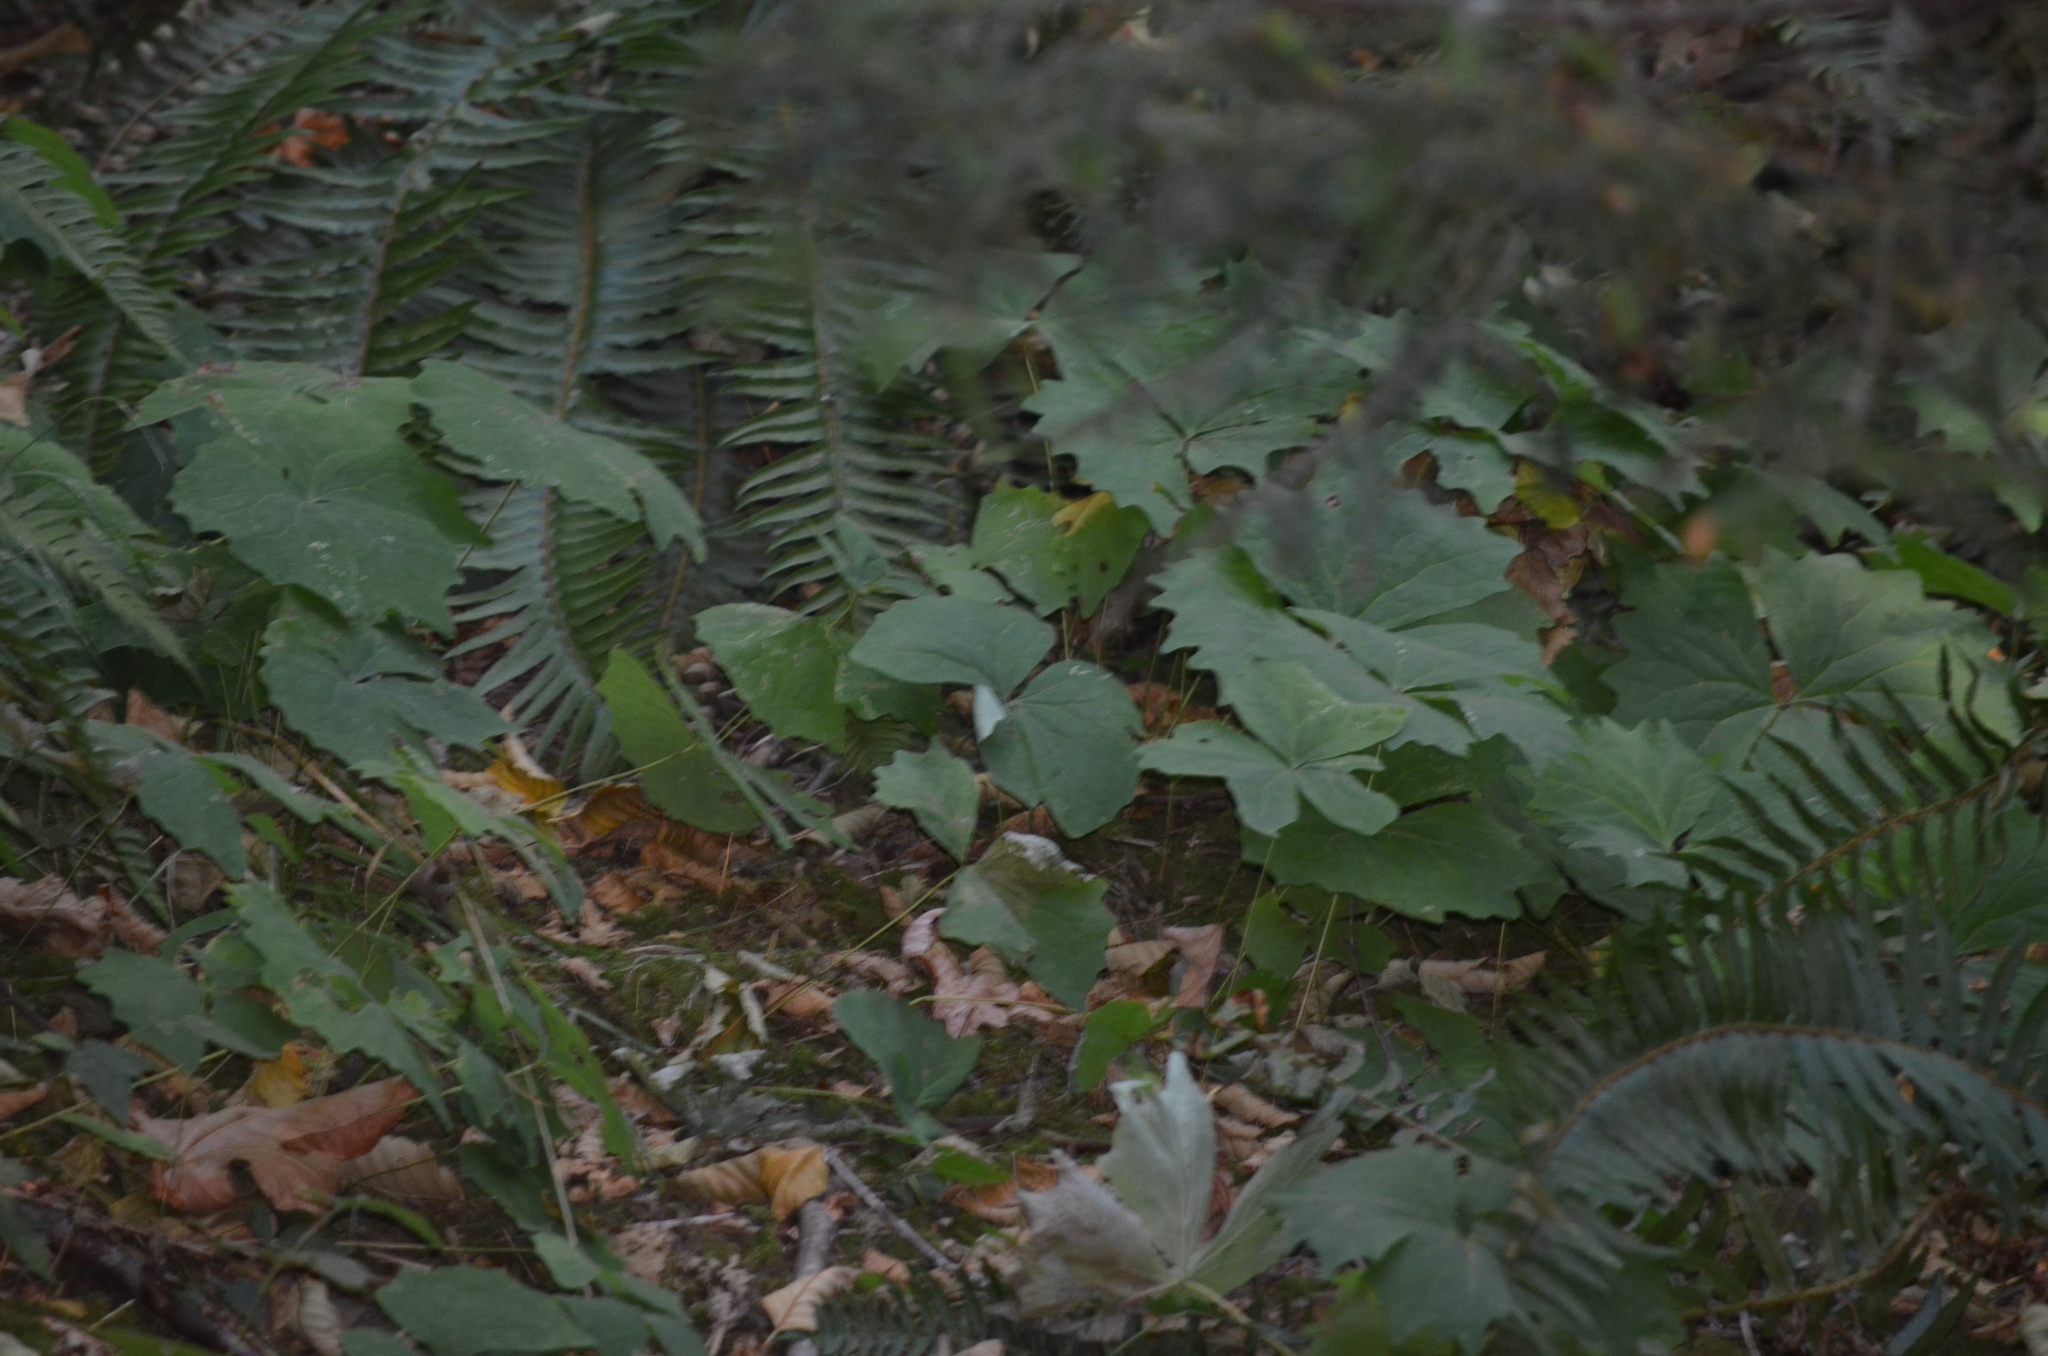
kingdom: Plantae
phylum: Tracheophyta
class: Magnoliopsida
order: Ranunculales
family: Berberidaceae
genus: Achlys
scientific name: Achlys triphylla
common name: Vanilla-leaf
